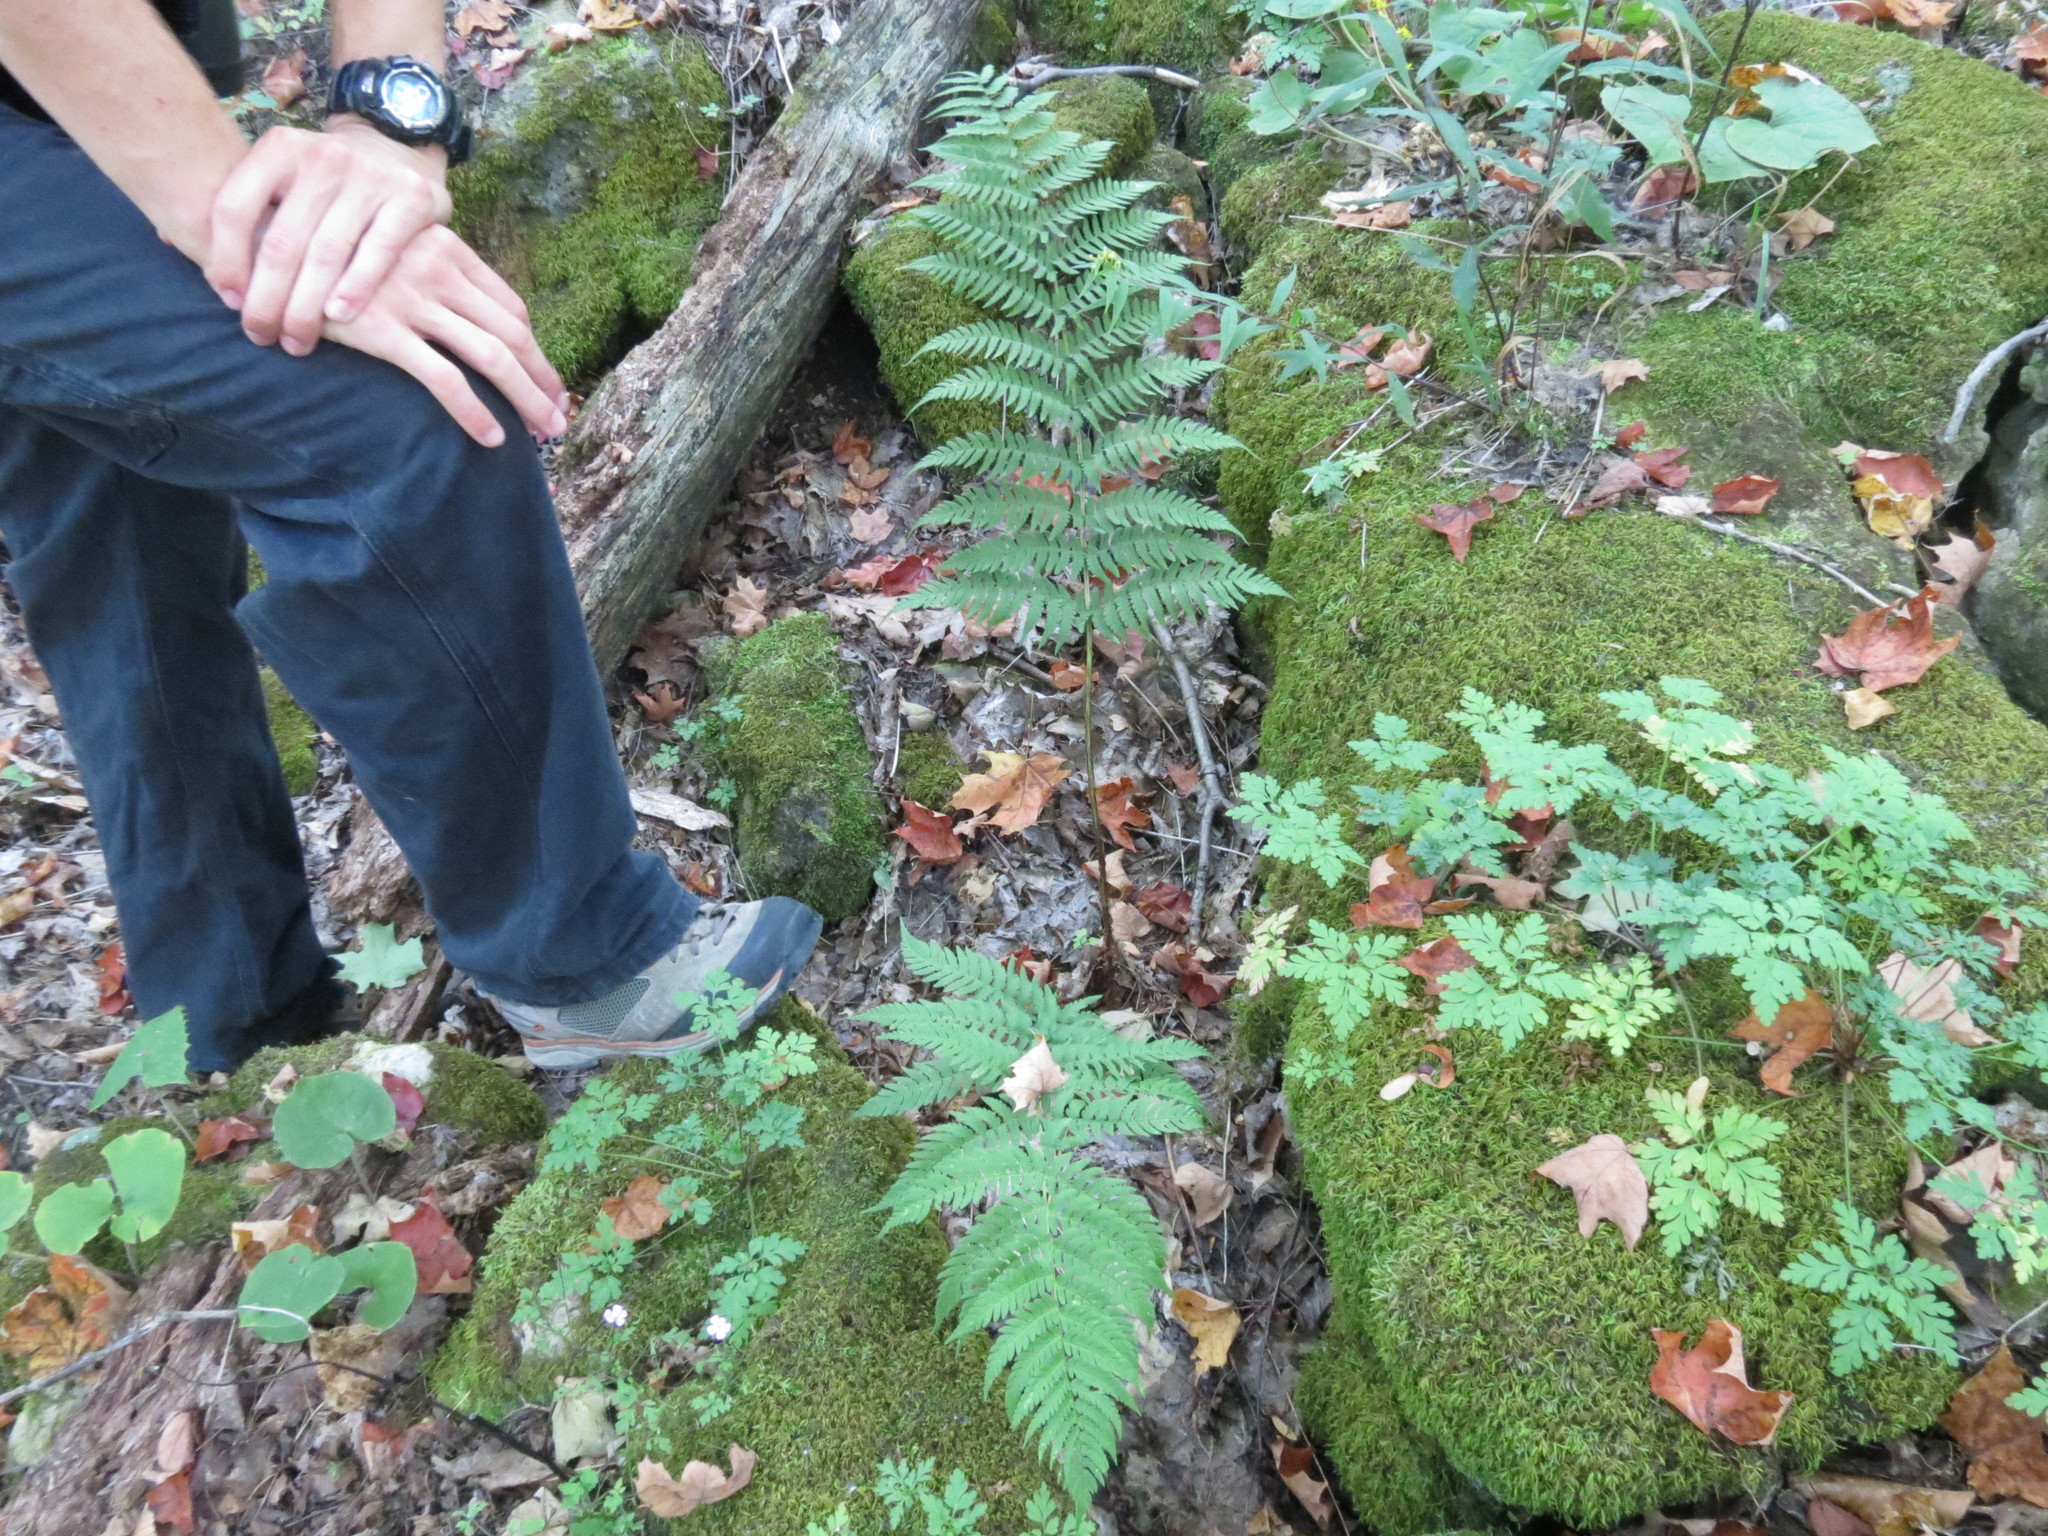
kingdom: Plantae
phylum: Tracheophyta
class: Polypodiopsida
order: Polypodiales
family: Dryopteridaceae
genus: Dryopteris
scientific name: Dryopteris marginalis
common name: Marginal wood fern
